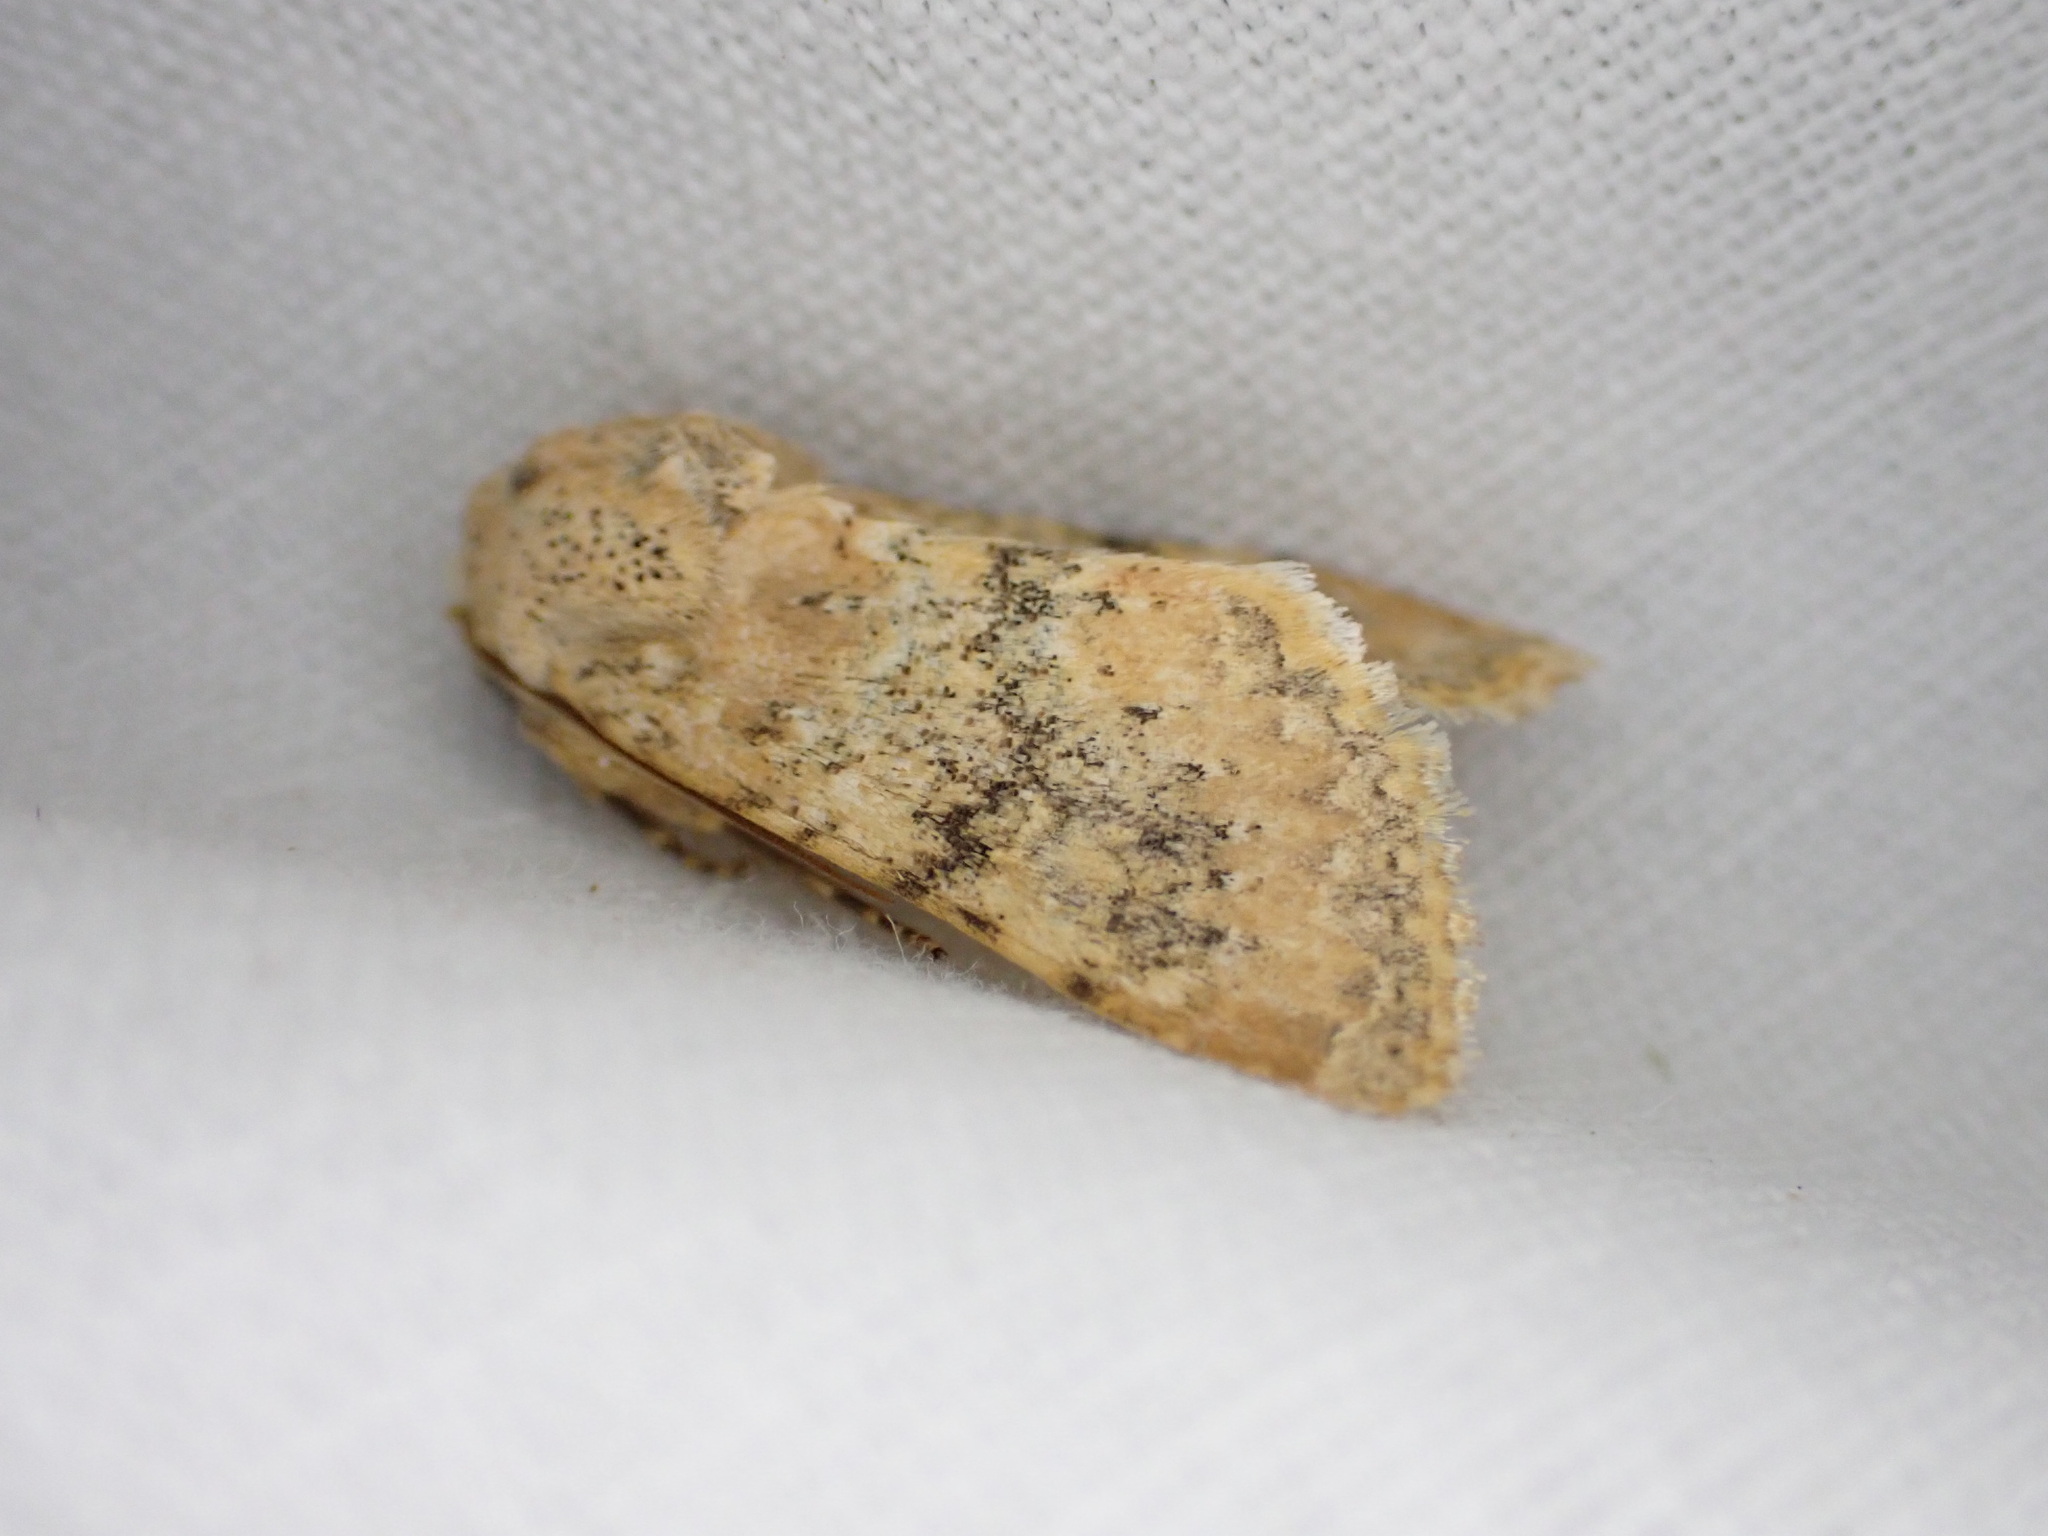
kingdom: Animalia
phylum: Arthropoda
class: Insecta
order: Lepidoptera
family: Noctuidae
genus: Polymixis
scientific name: Polymixis argillaceago
